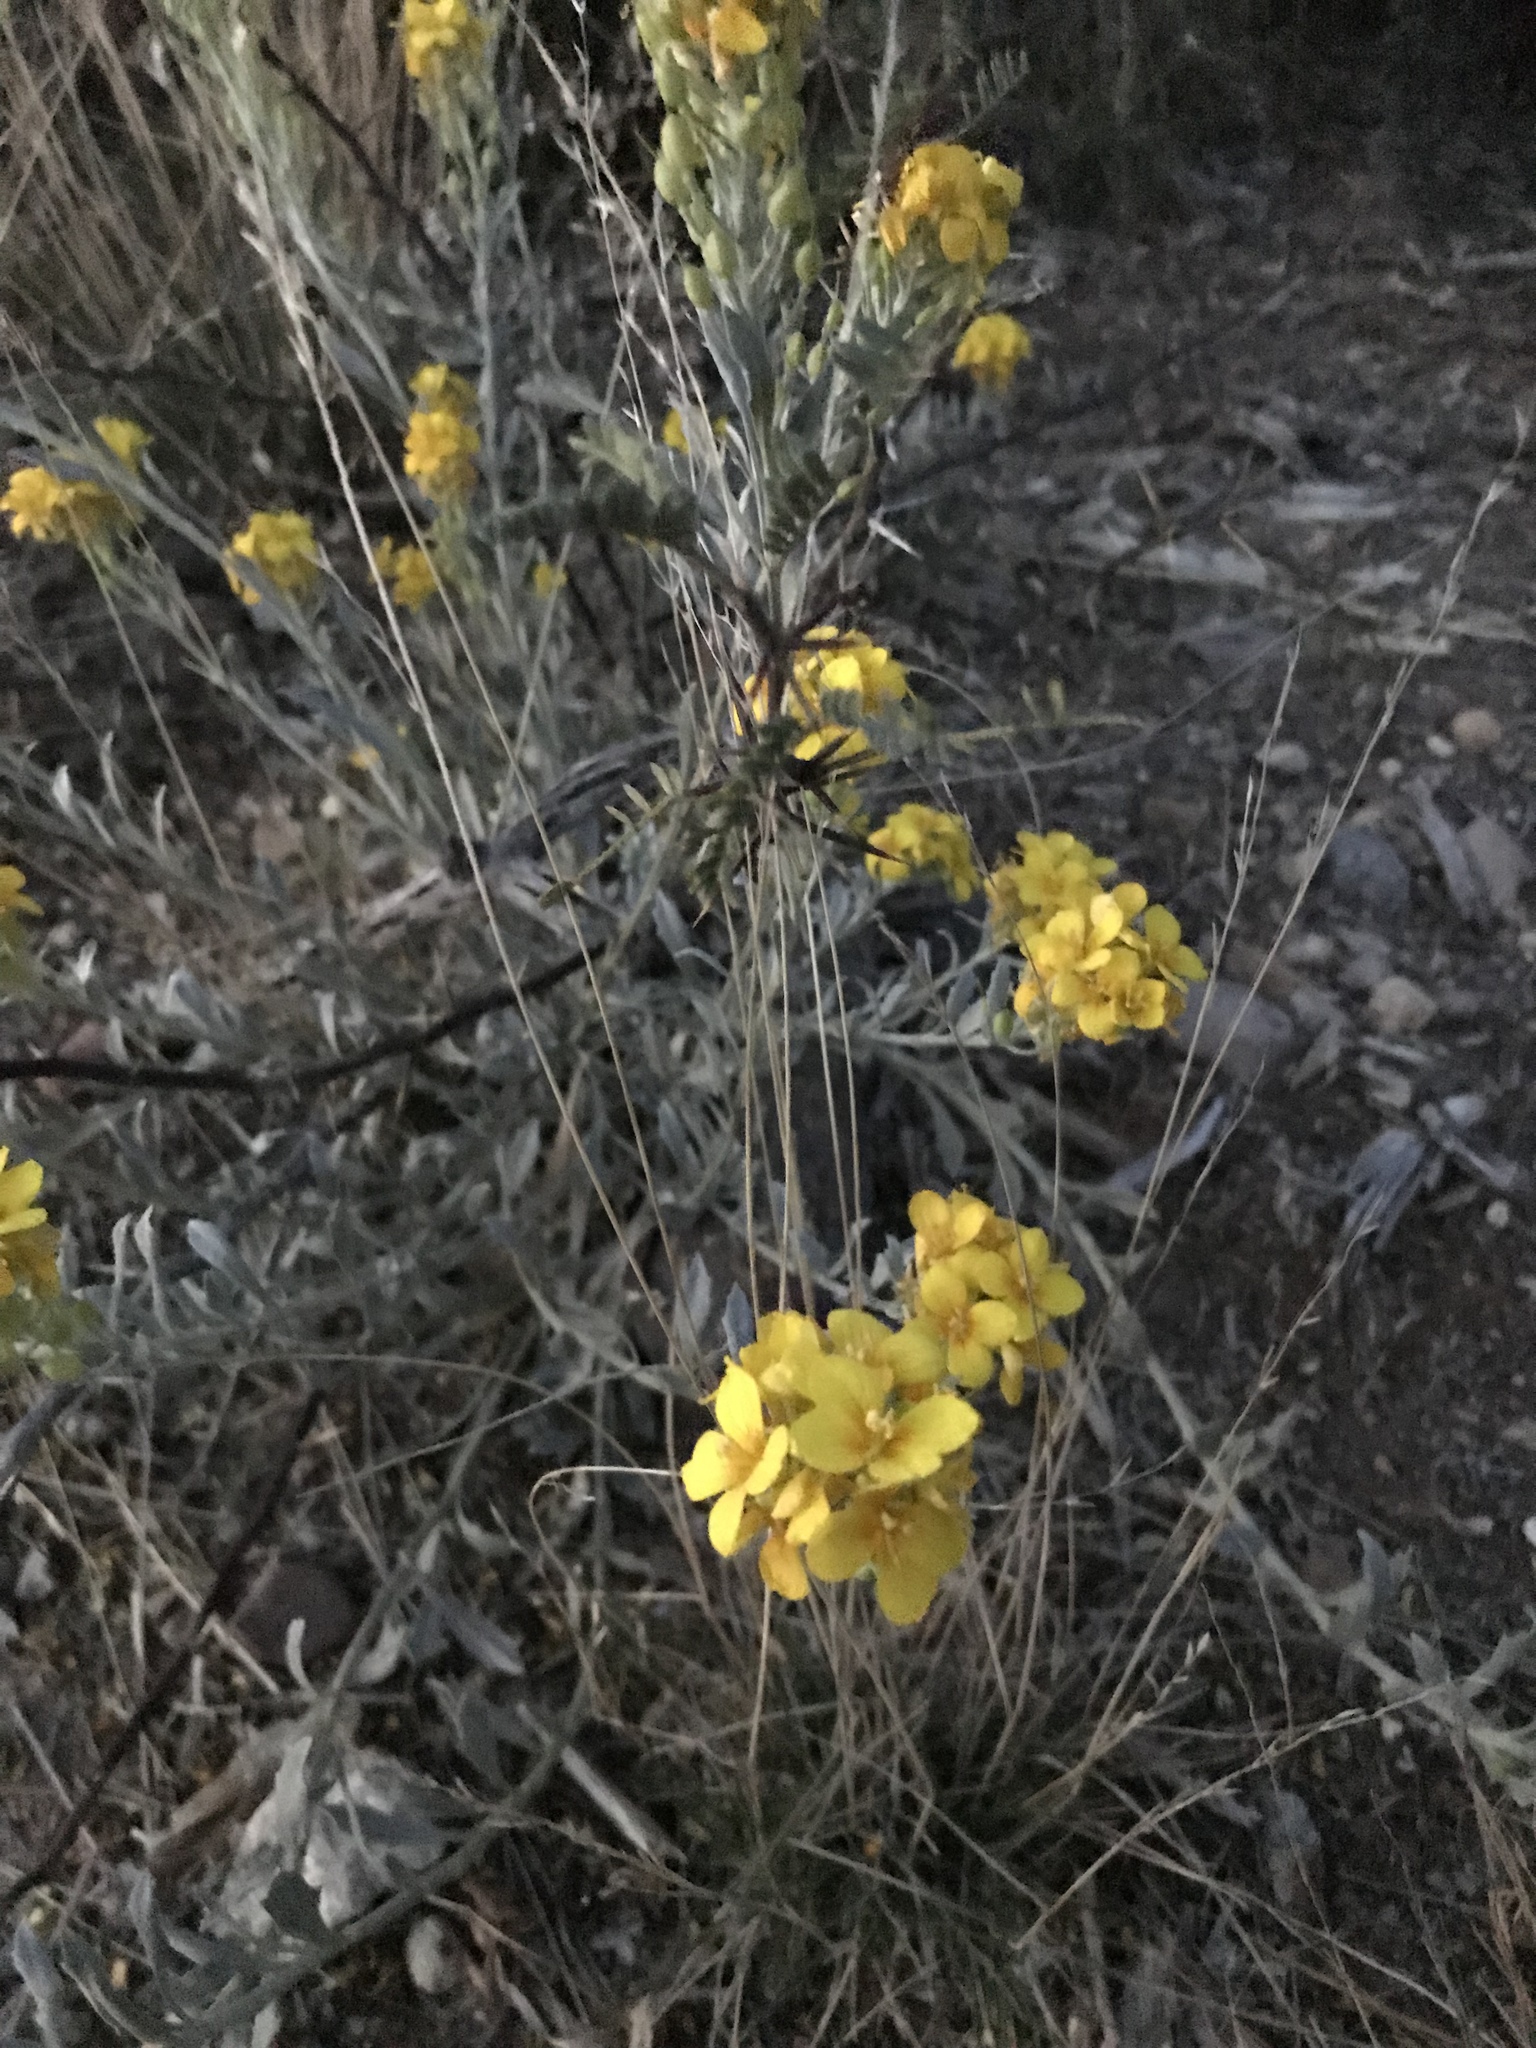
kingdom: Plantae
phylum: Tracheophyta
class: Magnoliopsida
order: Brassicales
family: Brassicaceae
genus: Physaria
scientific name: Physaria fendleri
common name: Fendler's bladderpod
